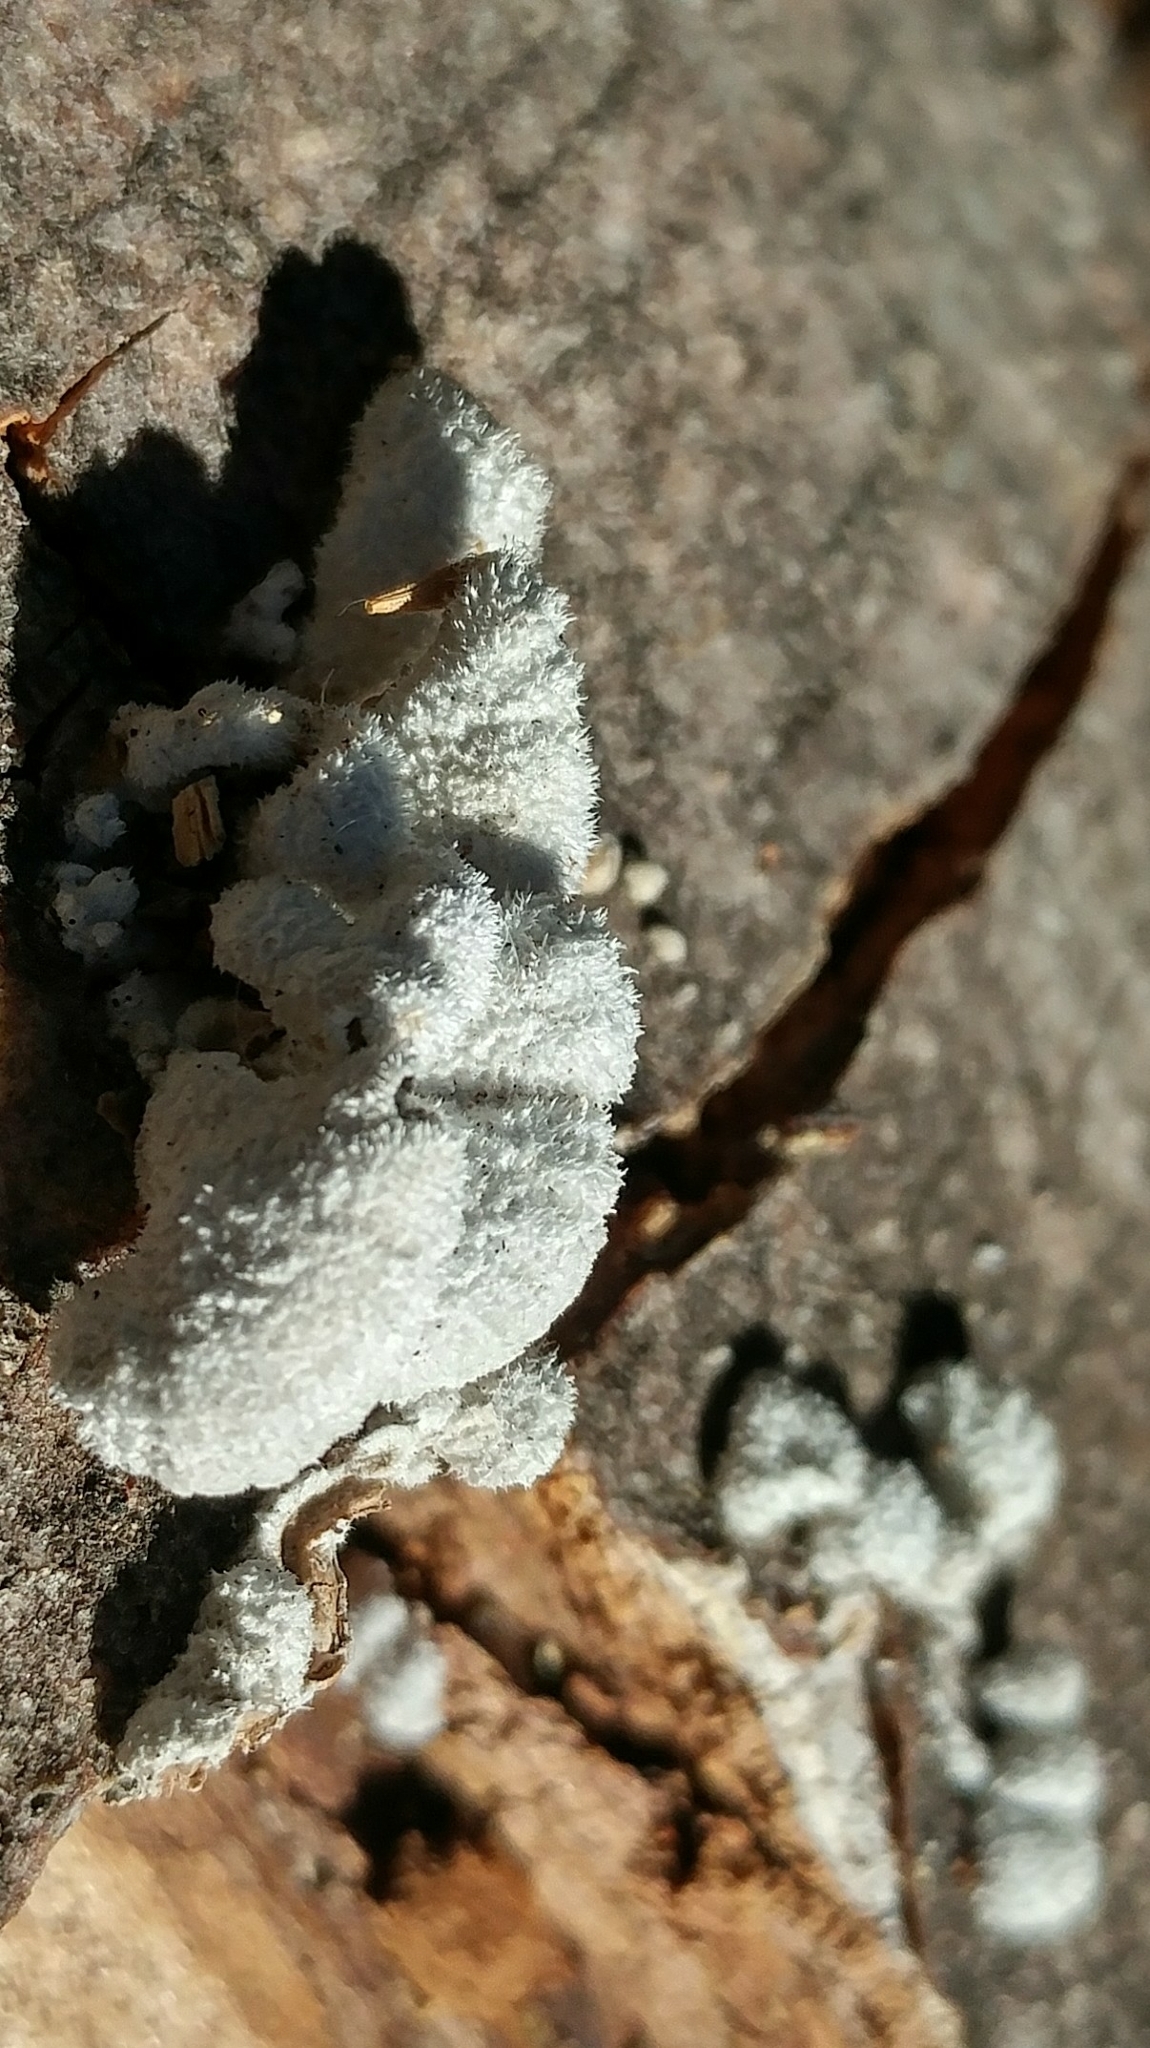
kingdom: Fungi
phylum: Basidiomycota
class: Agaricomycetes
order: Agaricales
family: Schizophyllaceae
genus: Schizophyllum
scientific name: Schizophyllum commune
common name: Common porecrust
